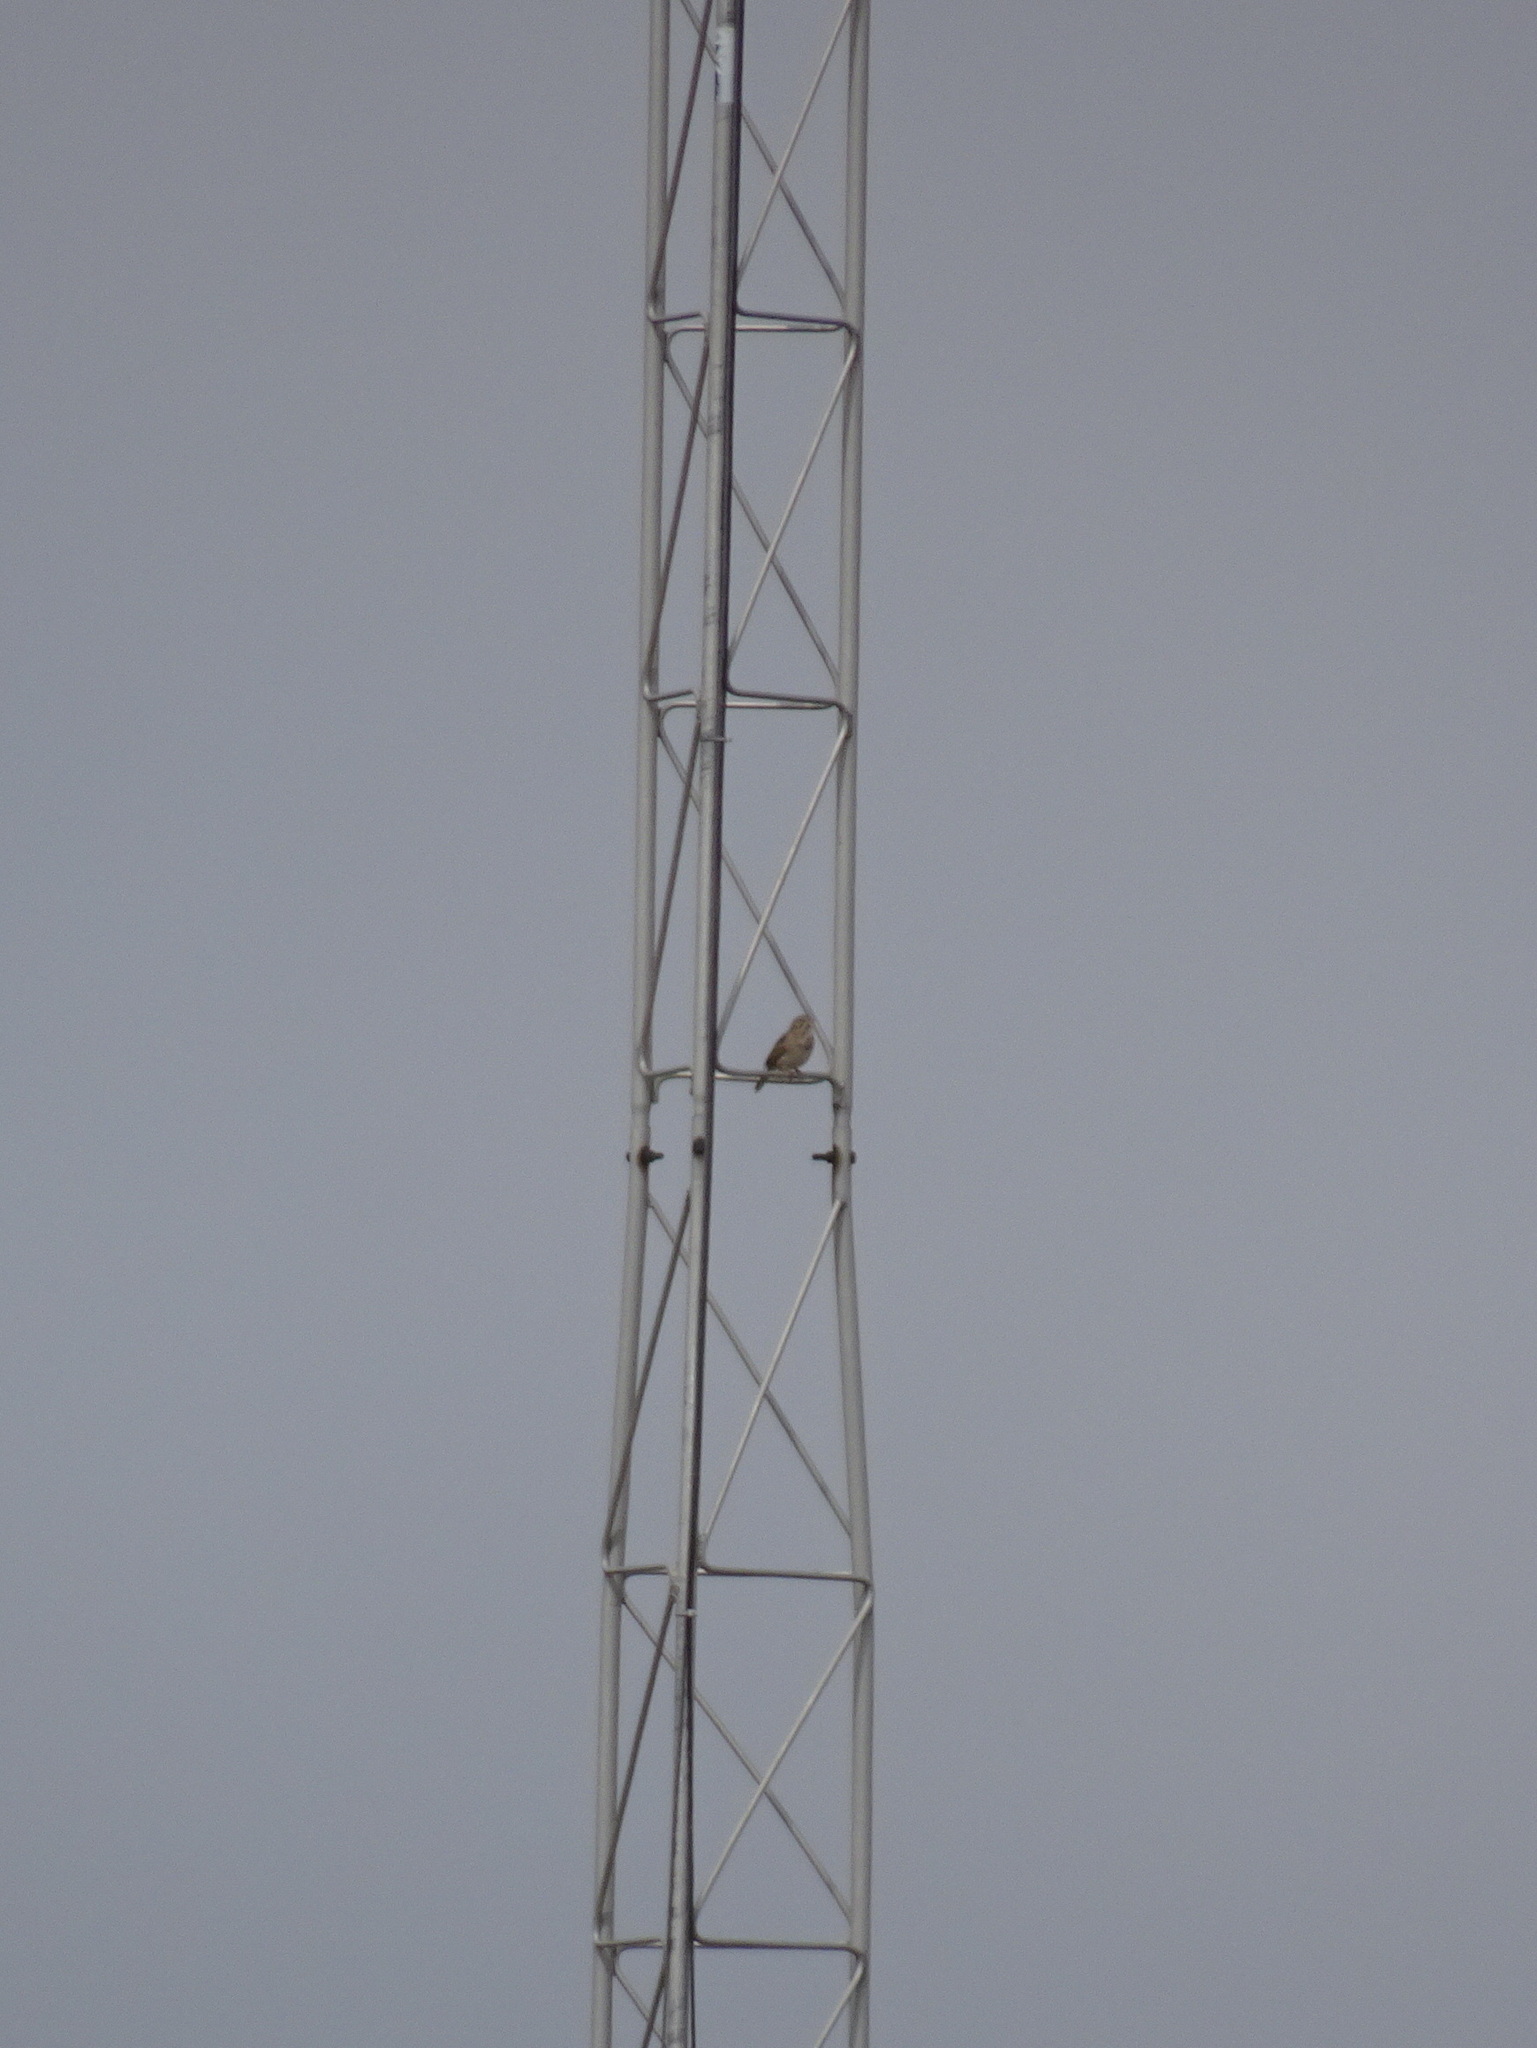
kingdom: Animalia
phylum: Chordata
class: Aves
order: Passeriformes
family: Passerellidae
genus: Pooecetes
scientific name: Pooecetes gramineus
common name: Vesper sparrow
